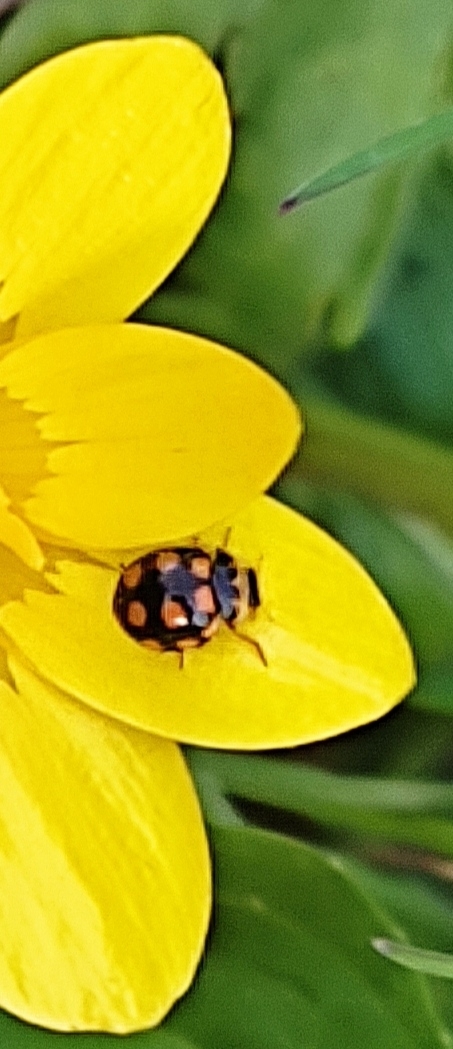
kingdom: Animalia
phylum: Arthropoda
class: Insecta
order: Coleoptera
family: Coccinellidae
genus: Coccinula
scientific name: Coccinula quatuordecimpustulata
